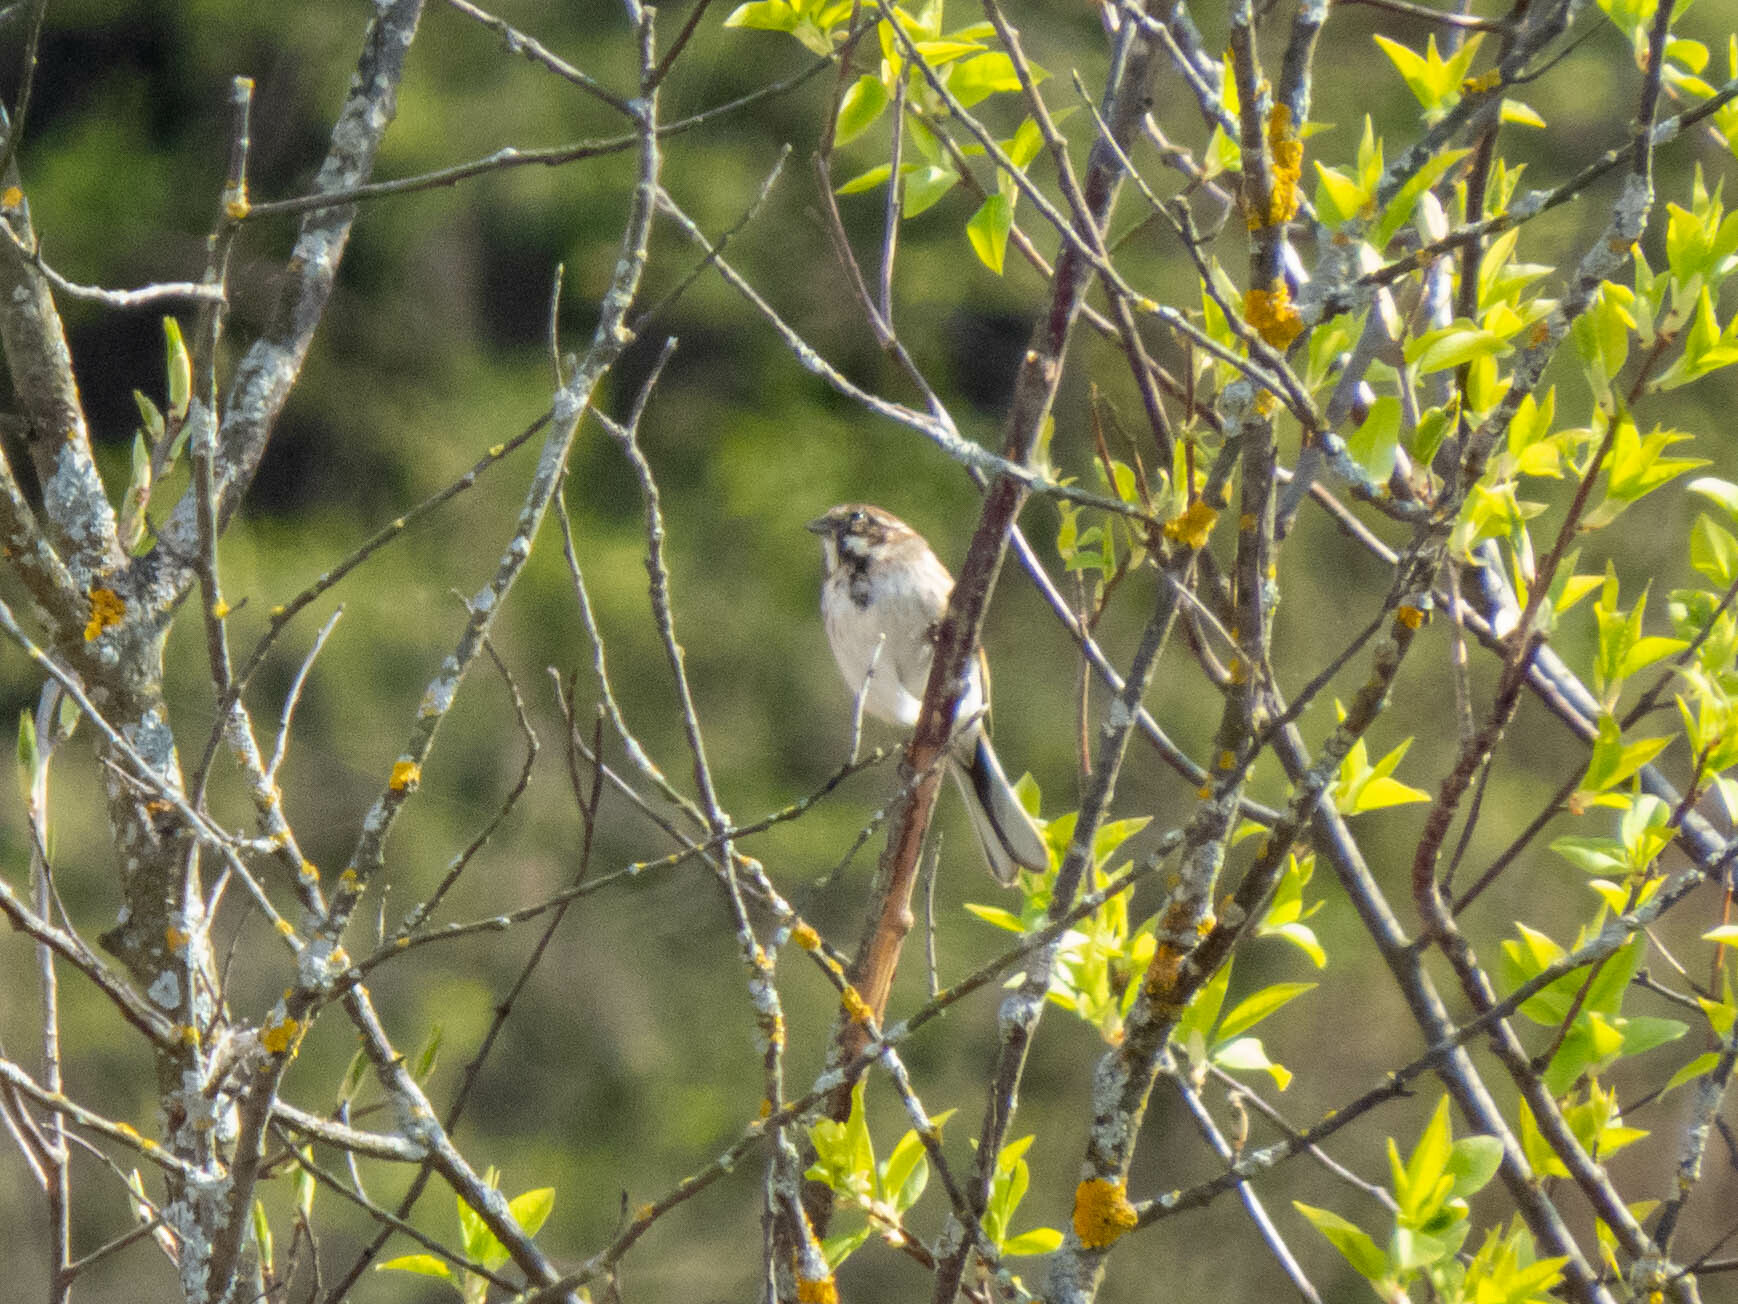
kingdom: Animalia
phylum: Chordata
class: Aves
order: Passeriformes
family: Emberizidae
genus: Emberiza
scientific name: Emberiza schoeniclus
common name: Reed bunting
